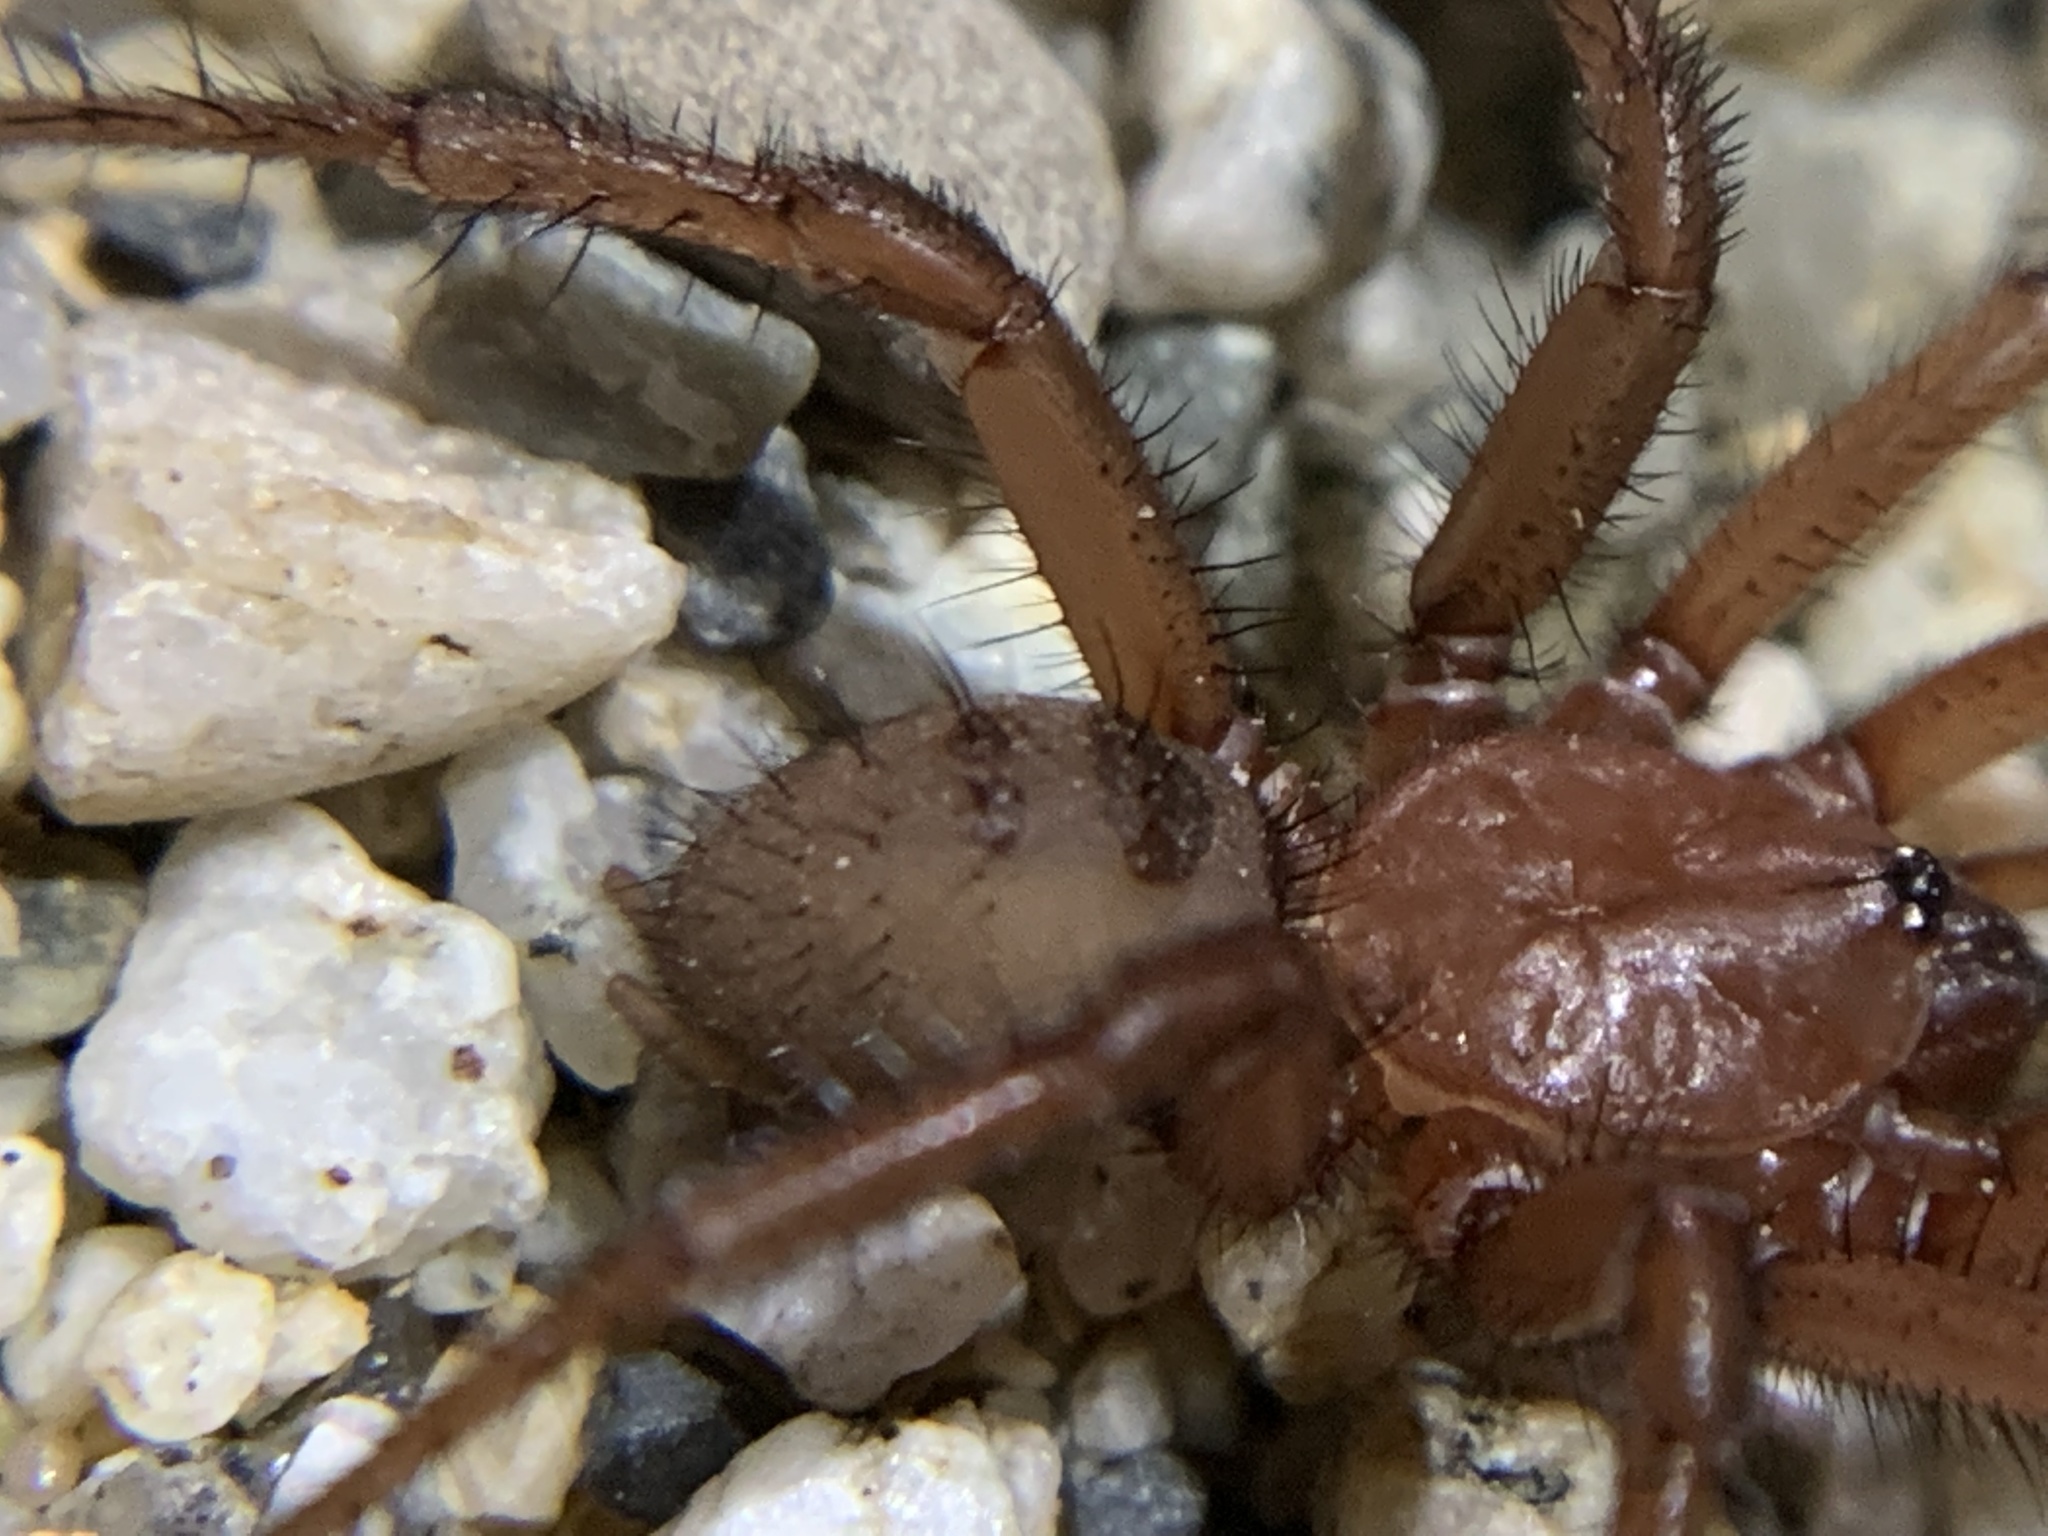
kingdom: Animalia
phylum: Arthropoda
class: Arachnida
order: Araneae
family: Antrodiaetidae
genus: Antrodiaetus
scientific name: Antrodiaetus montanus
